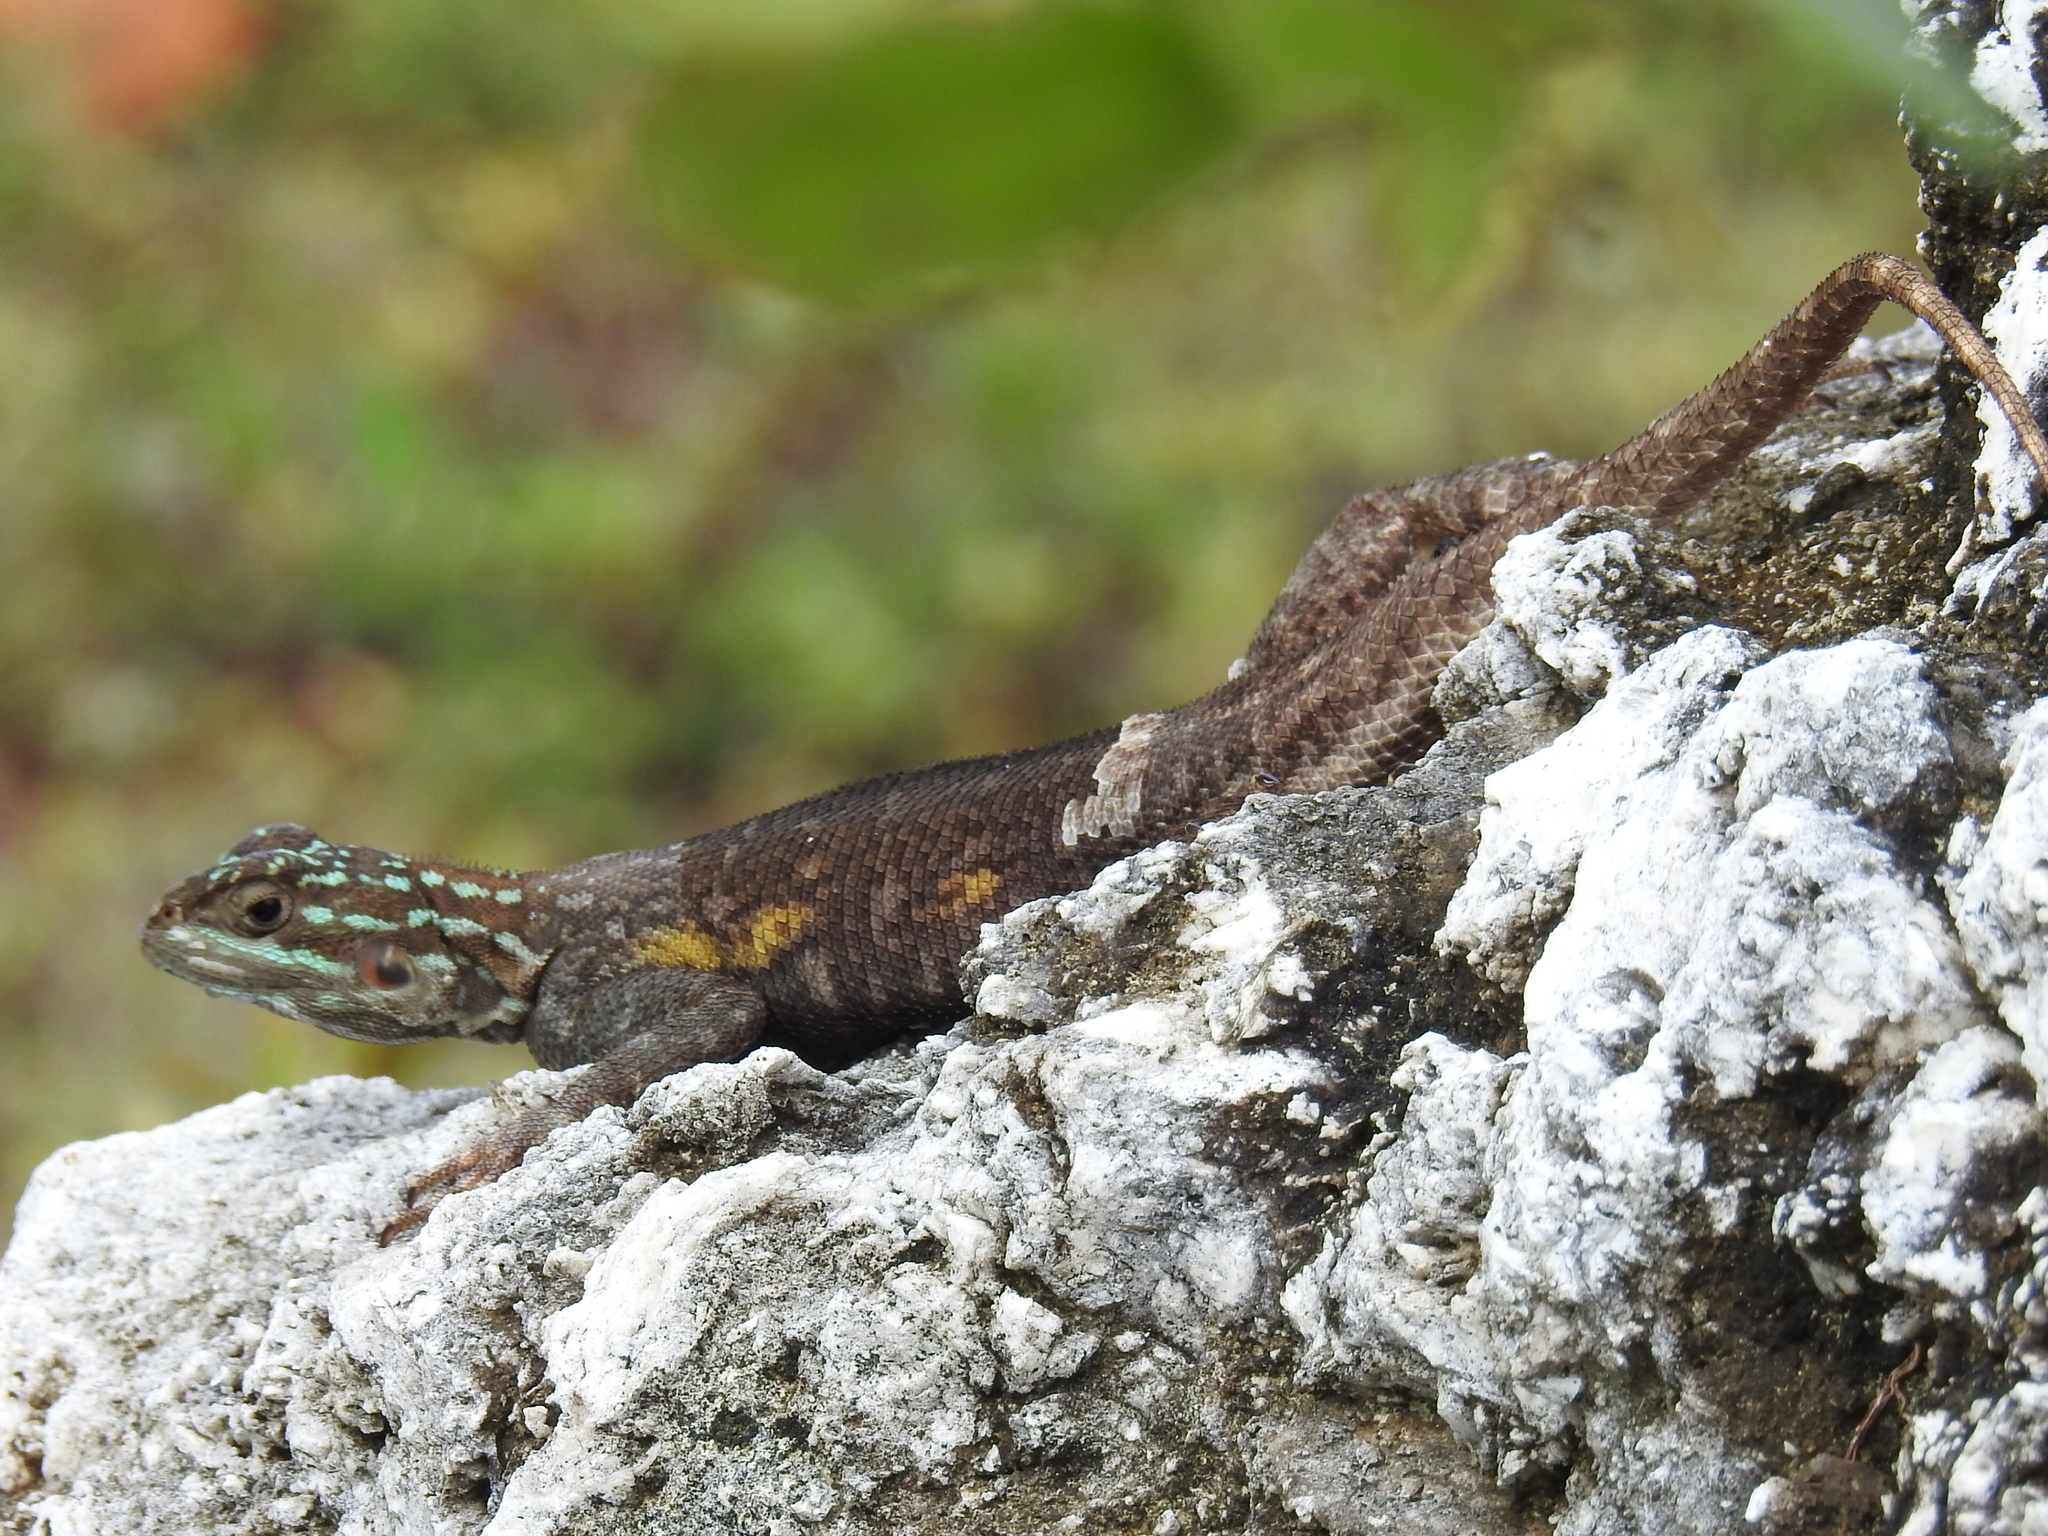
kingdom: Animalia
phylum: Chordata
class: Squamata
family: Agamidae
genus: Agama
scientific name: Agama picticauda
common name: Red-headed agama
